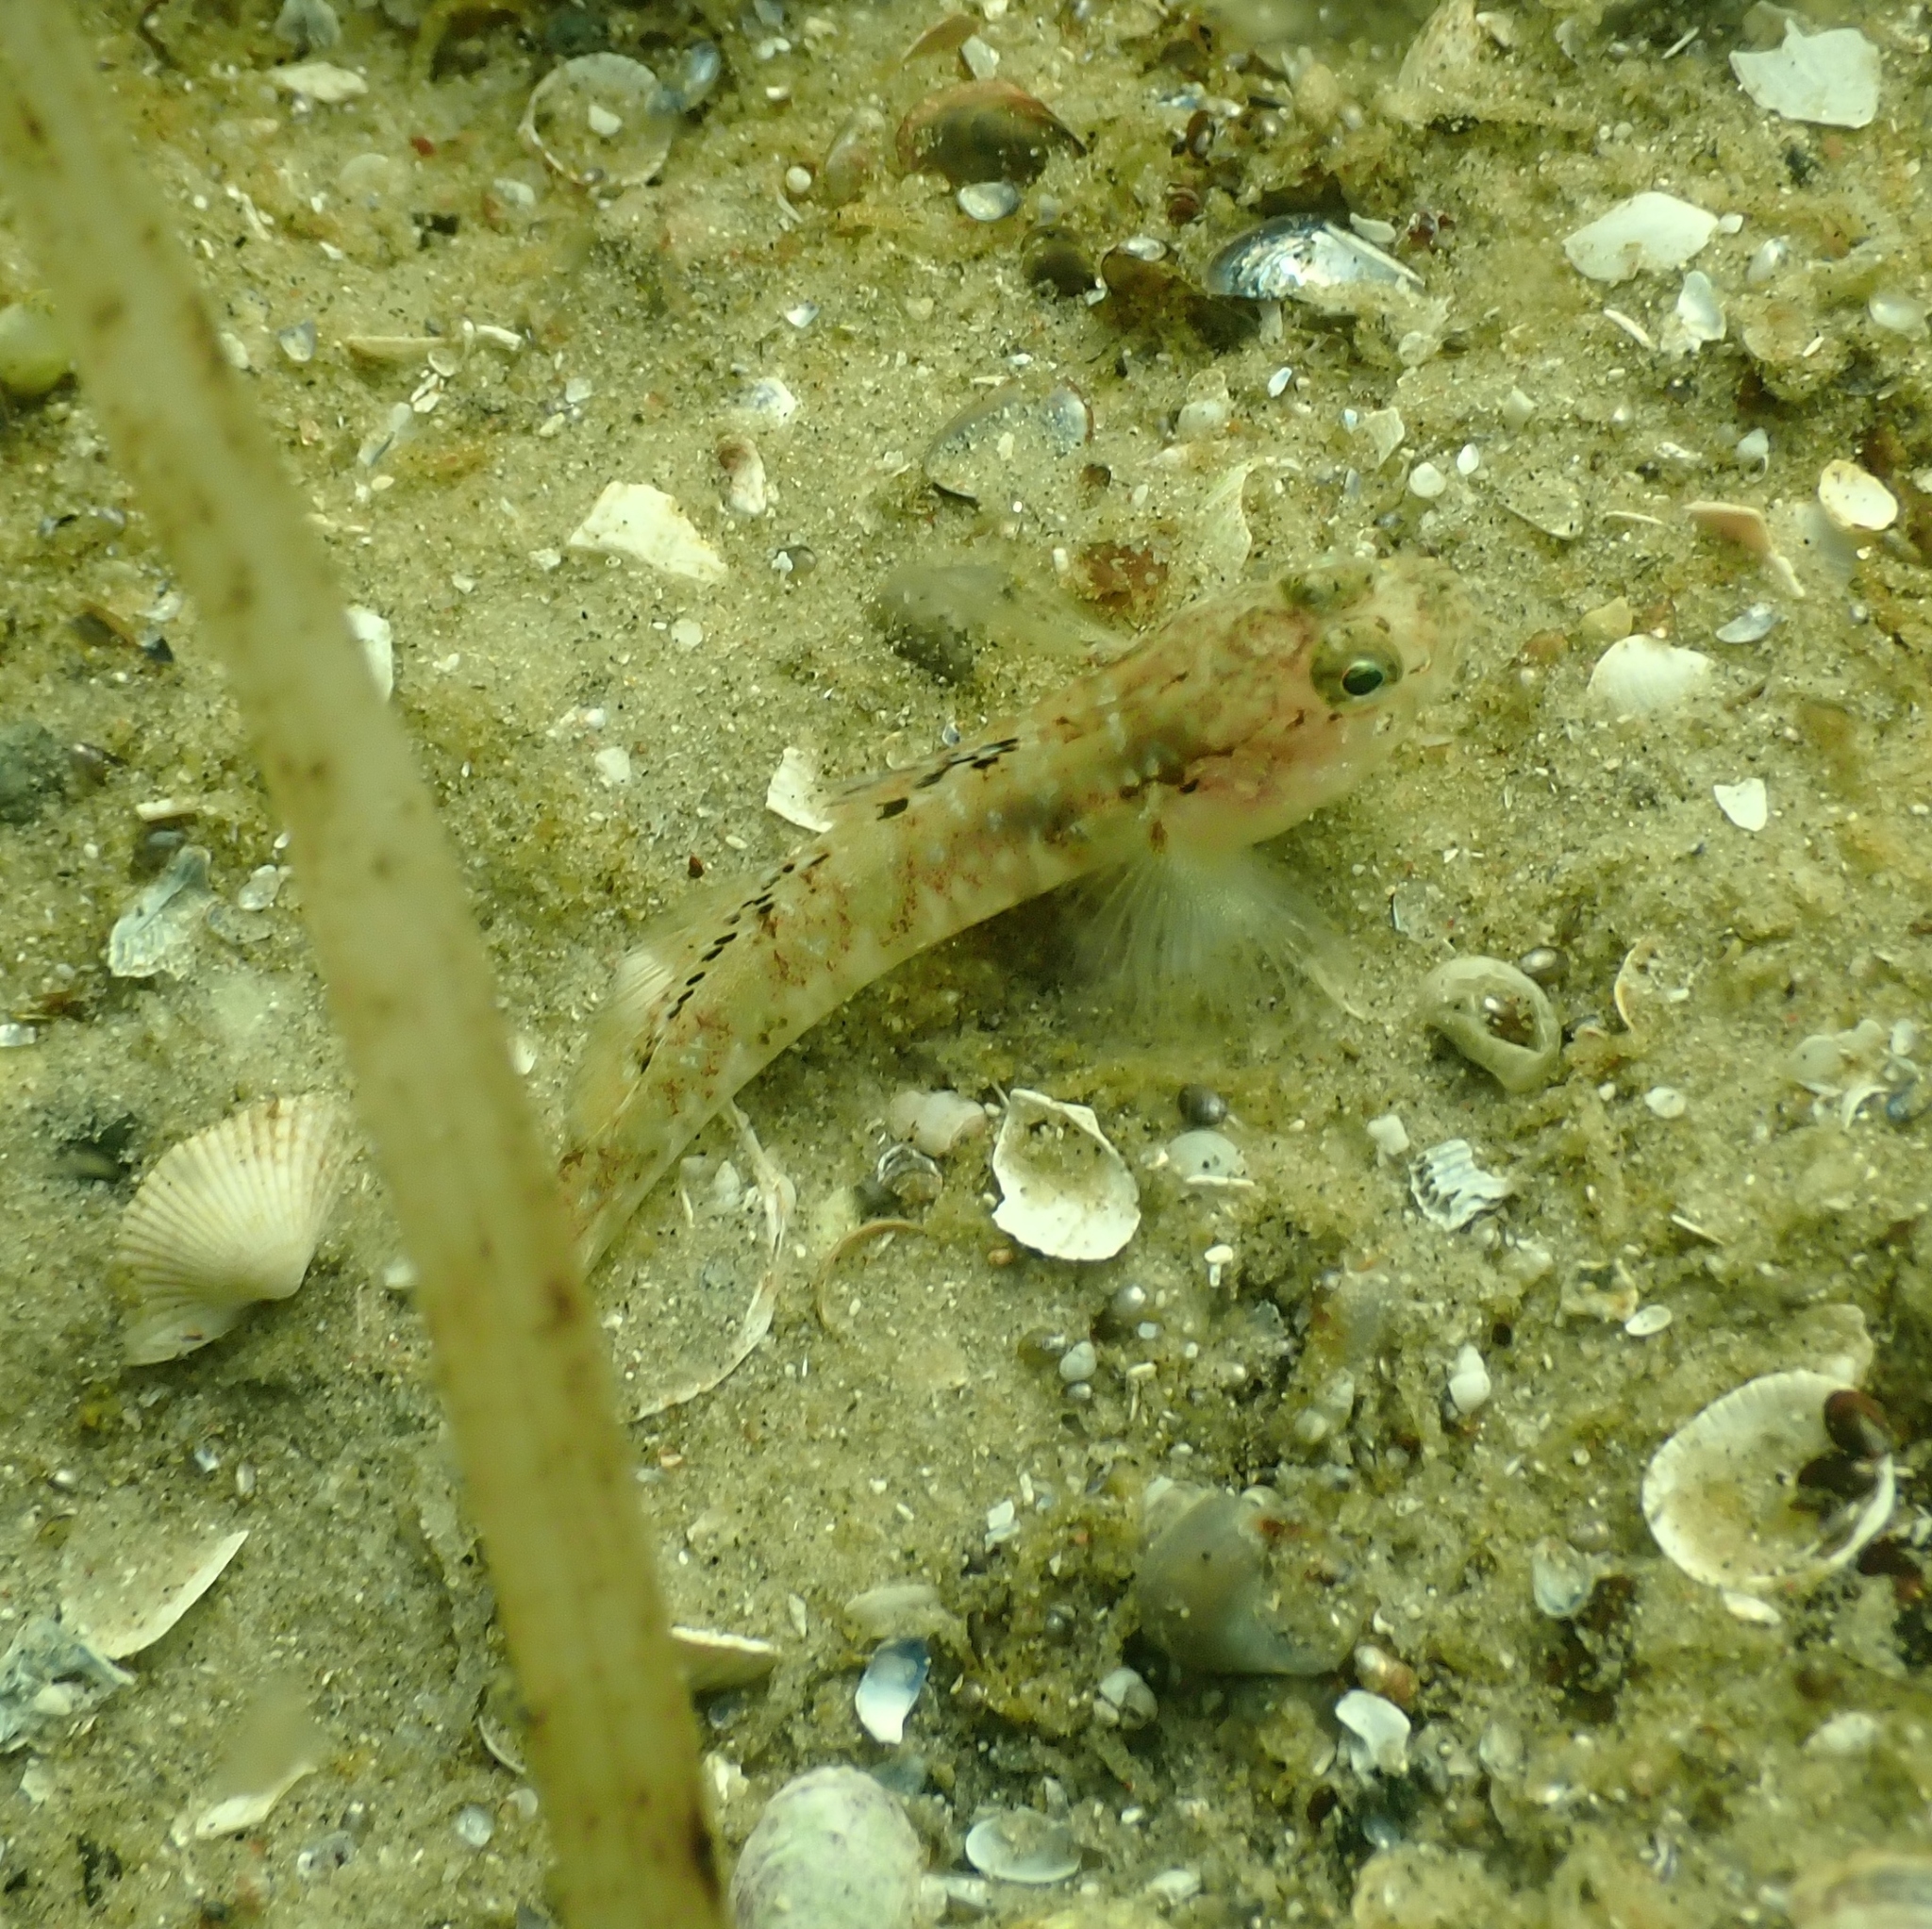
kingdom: Animalia
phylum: Chordata
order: Perciformes
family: Gobiidae
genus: Pomatoschistus
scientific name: Pomatoschistus pictus
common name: Painted goby
